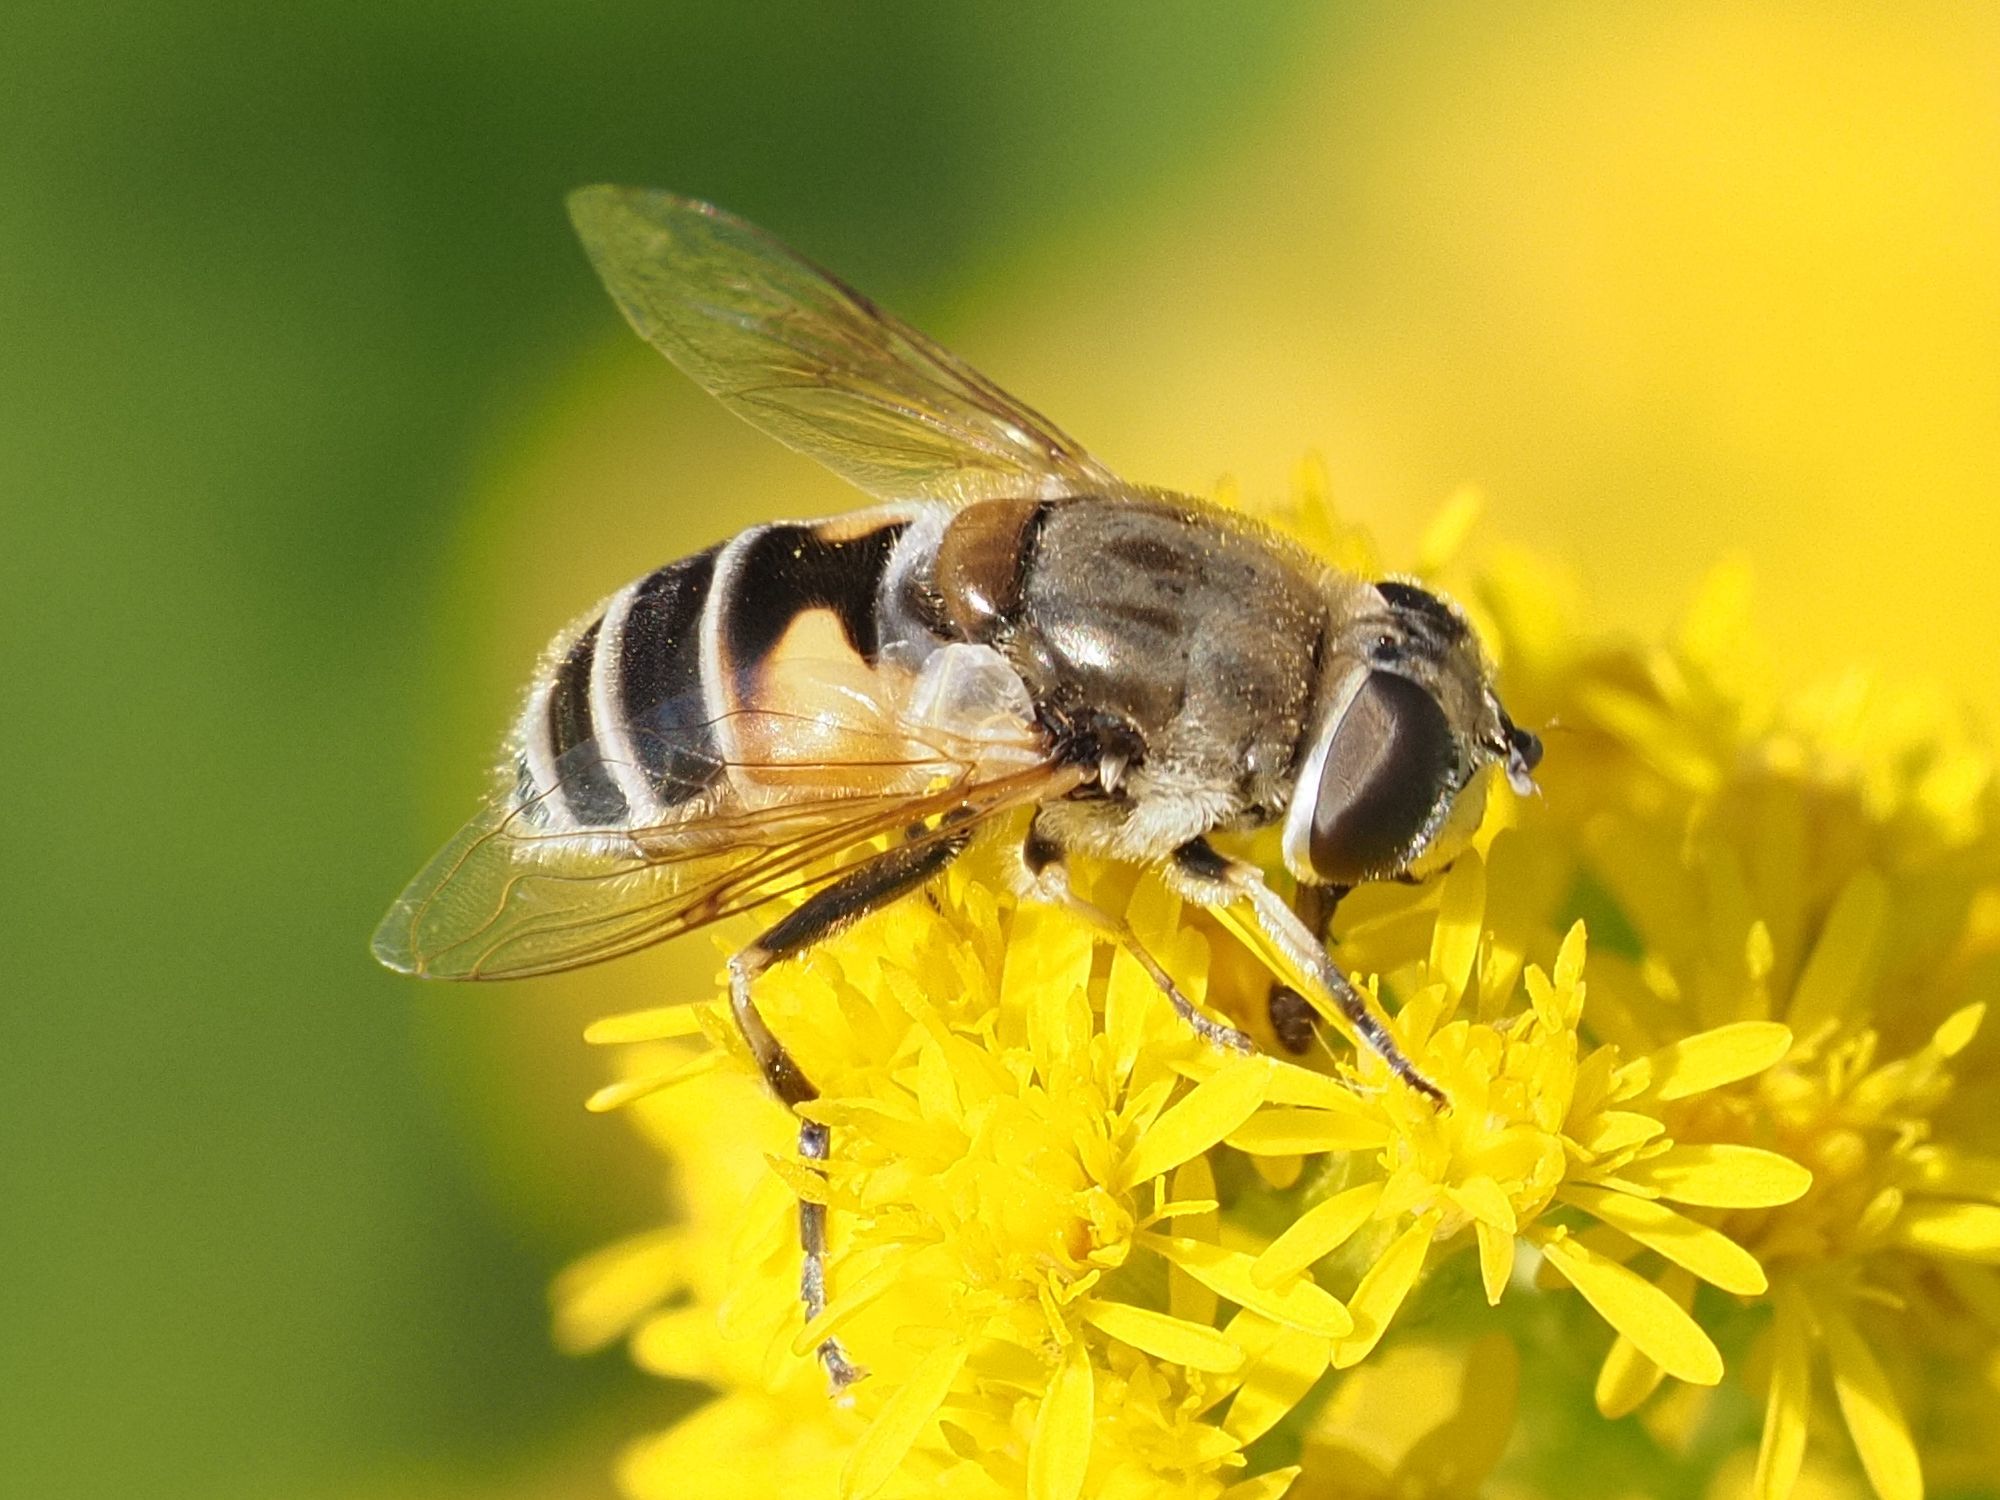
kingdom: Animalia
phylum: Arthropoda
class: Insecta
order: Diptera
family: Syrphidae
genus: Eristalis
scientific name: Eristalis arbustorum
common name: Hover fly
